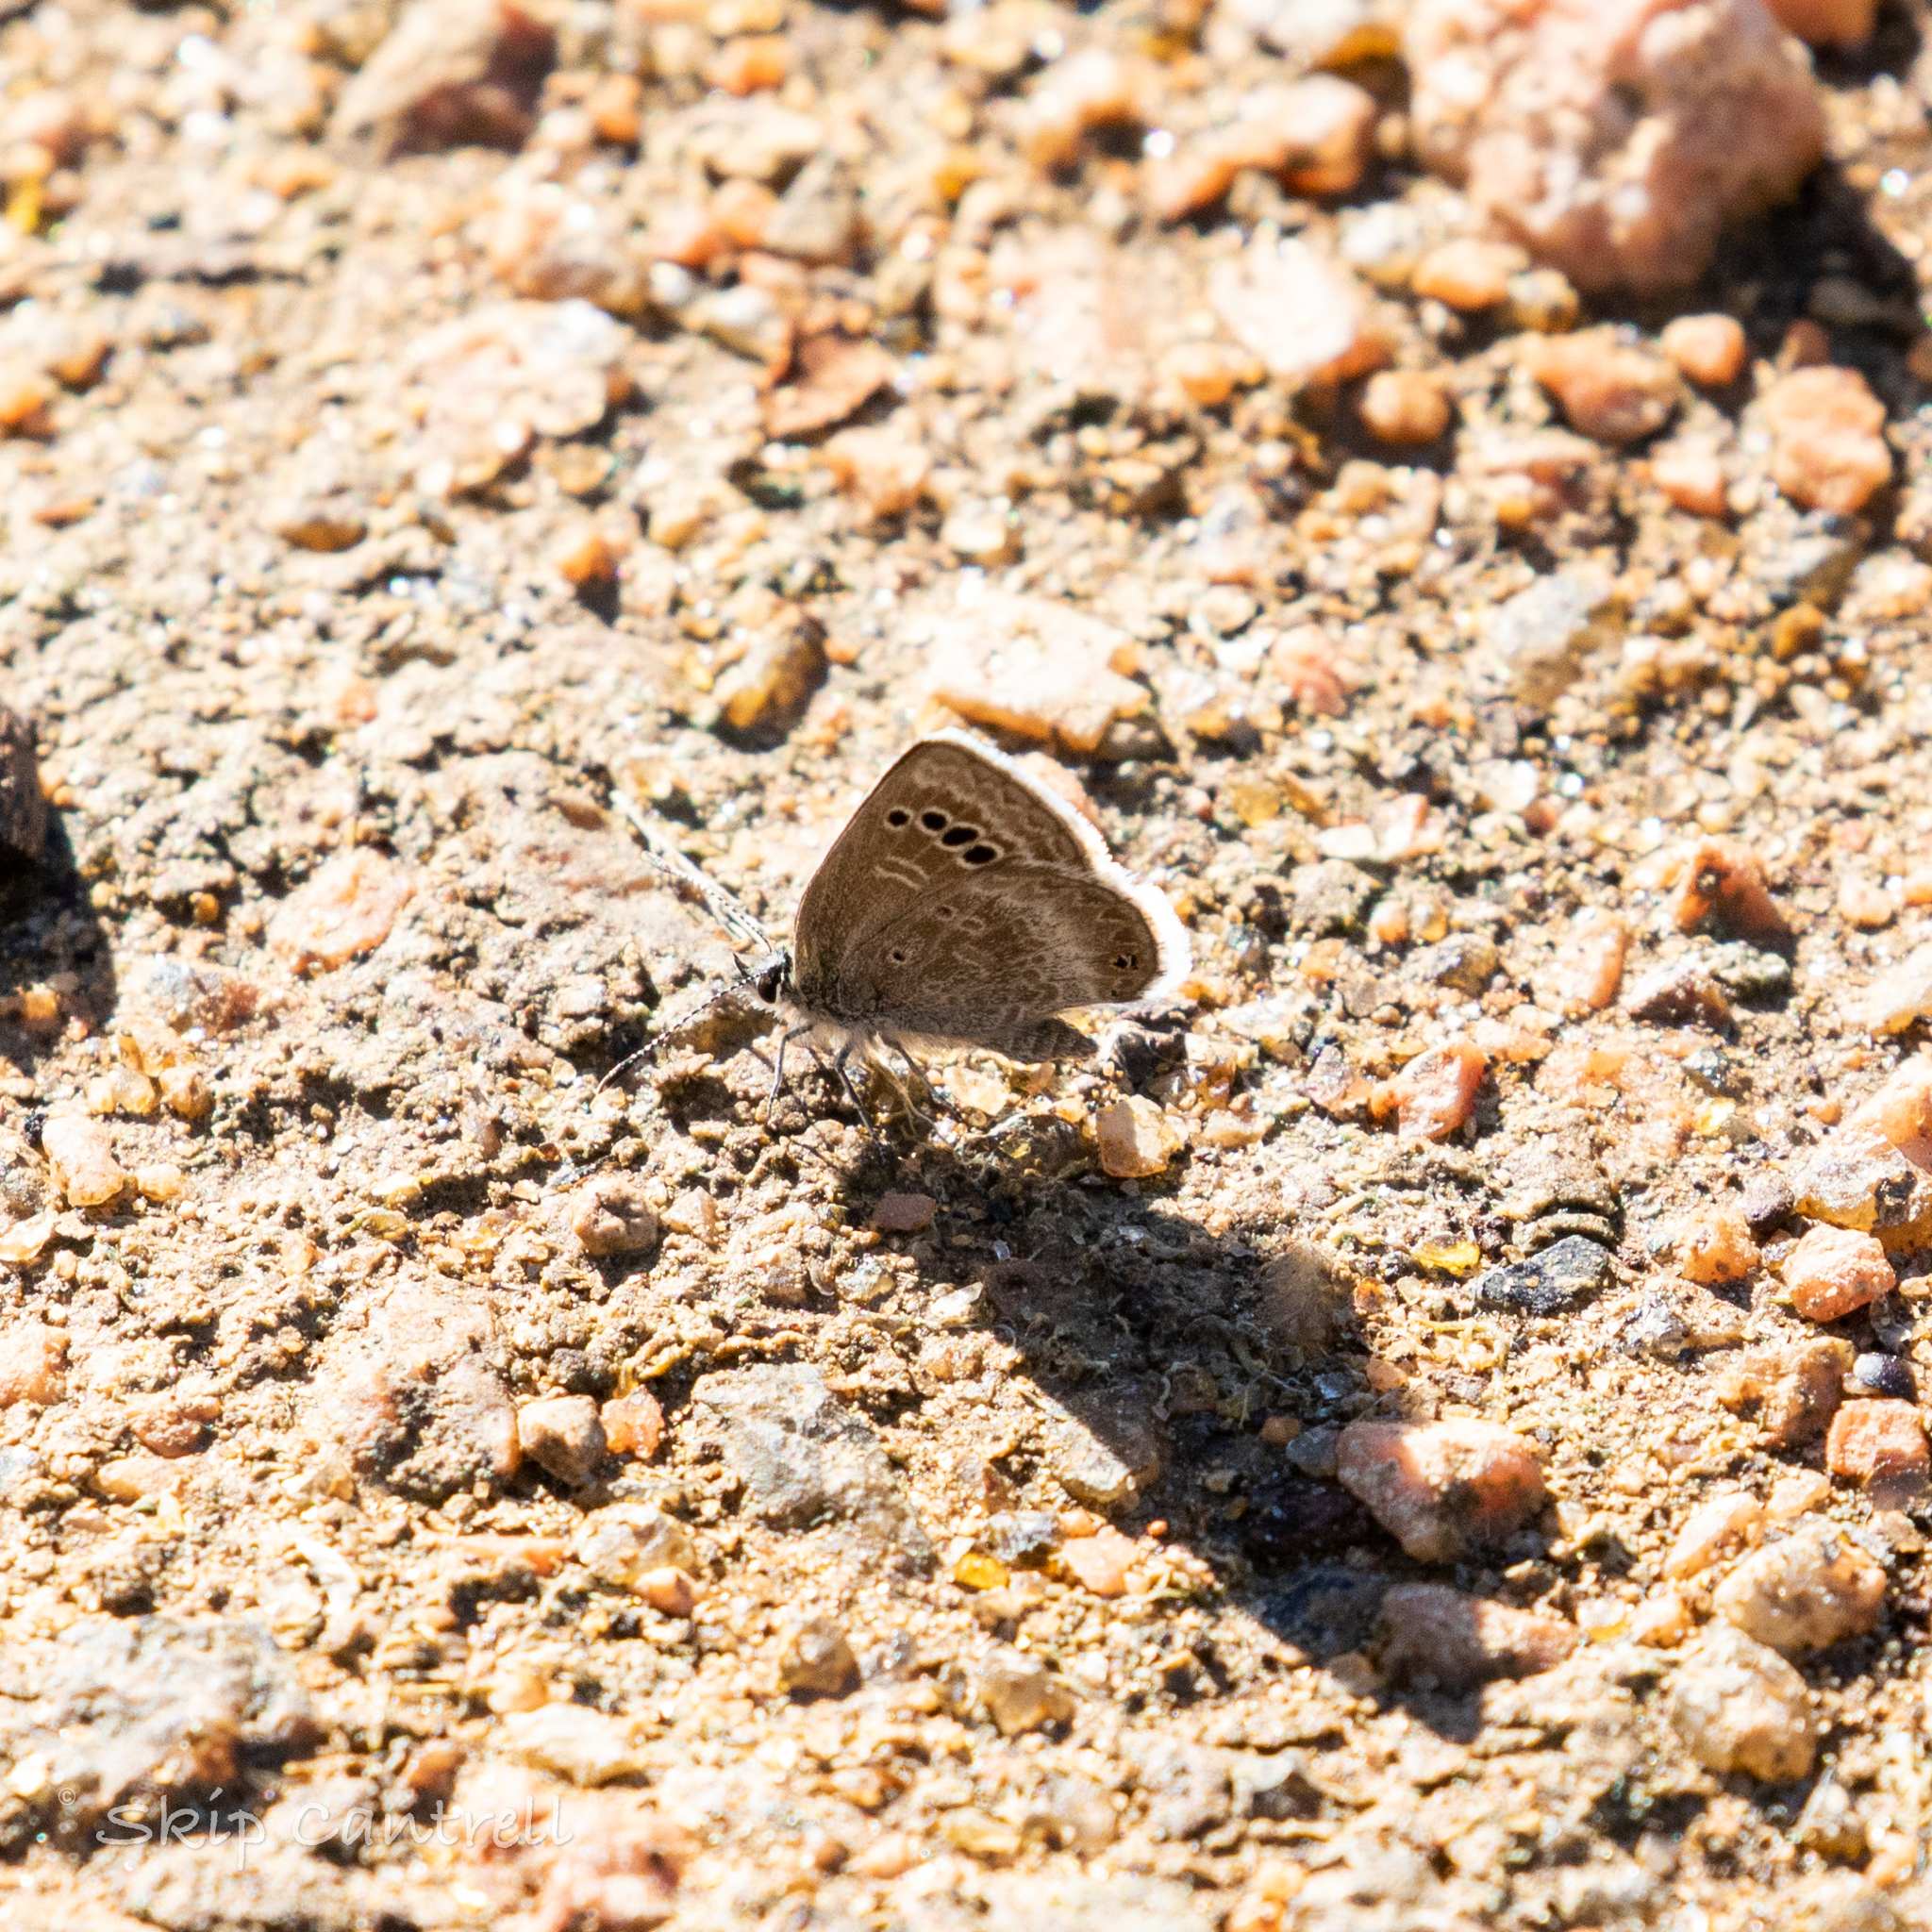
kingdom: Animalia
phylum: Arthropoda
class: Insecta
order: Lepidoptera
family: Lycaenidae
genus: Echinargus
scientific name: Echinargus isola
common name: Reakirt's blue
